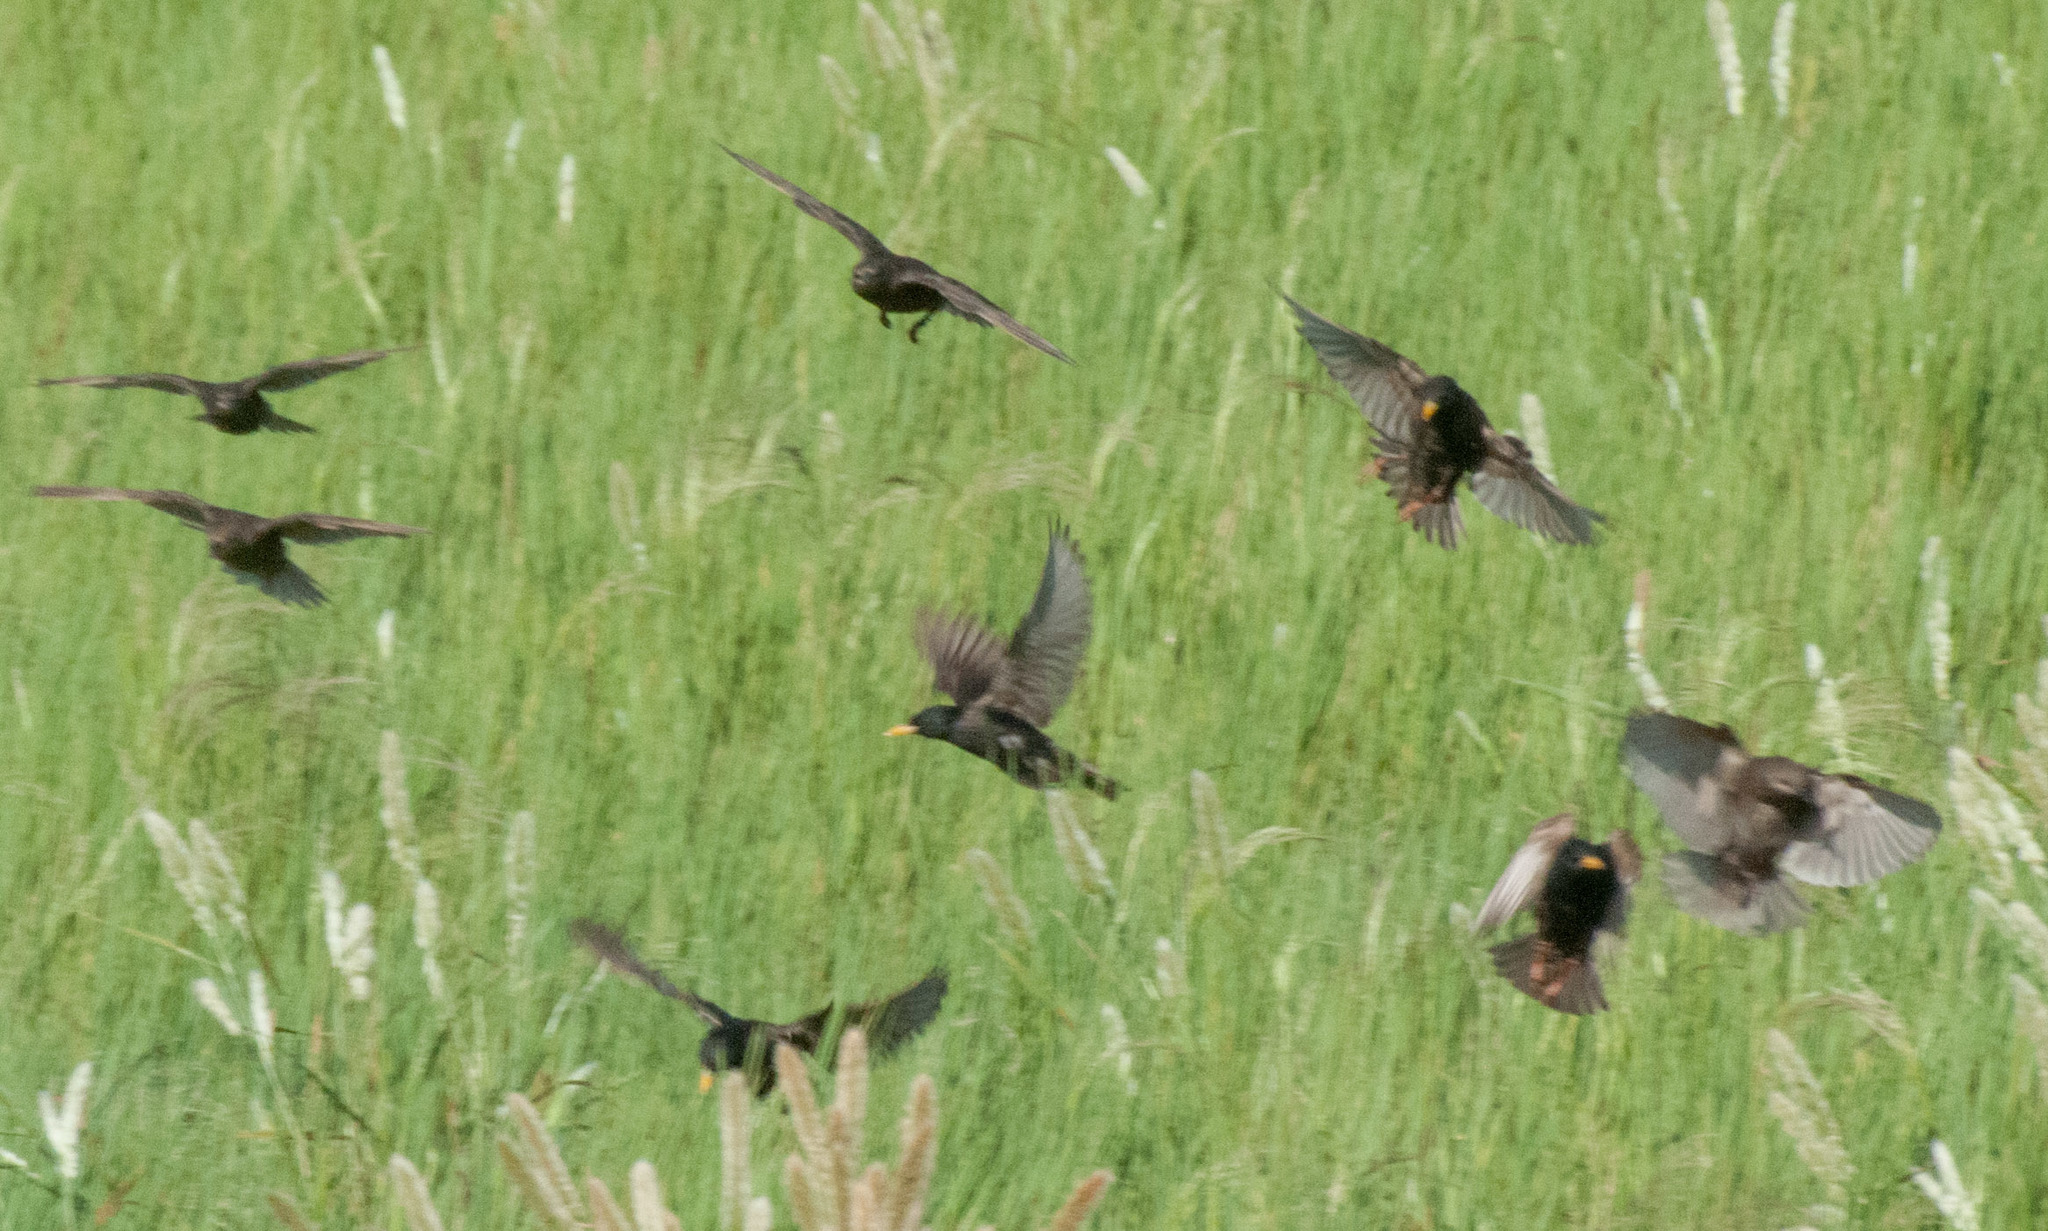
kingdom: Animalia
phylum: Chordata
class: Aves
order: Passeriformes
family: Sturnidae
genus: Sturnus
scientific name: Sturnus vulgaris
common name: Common starling
